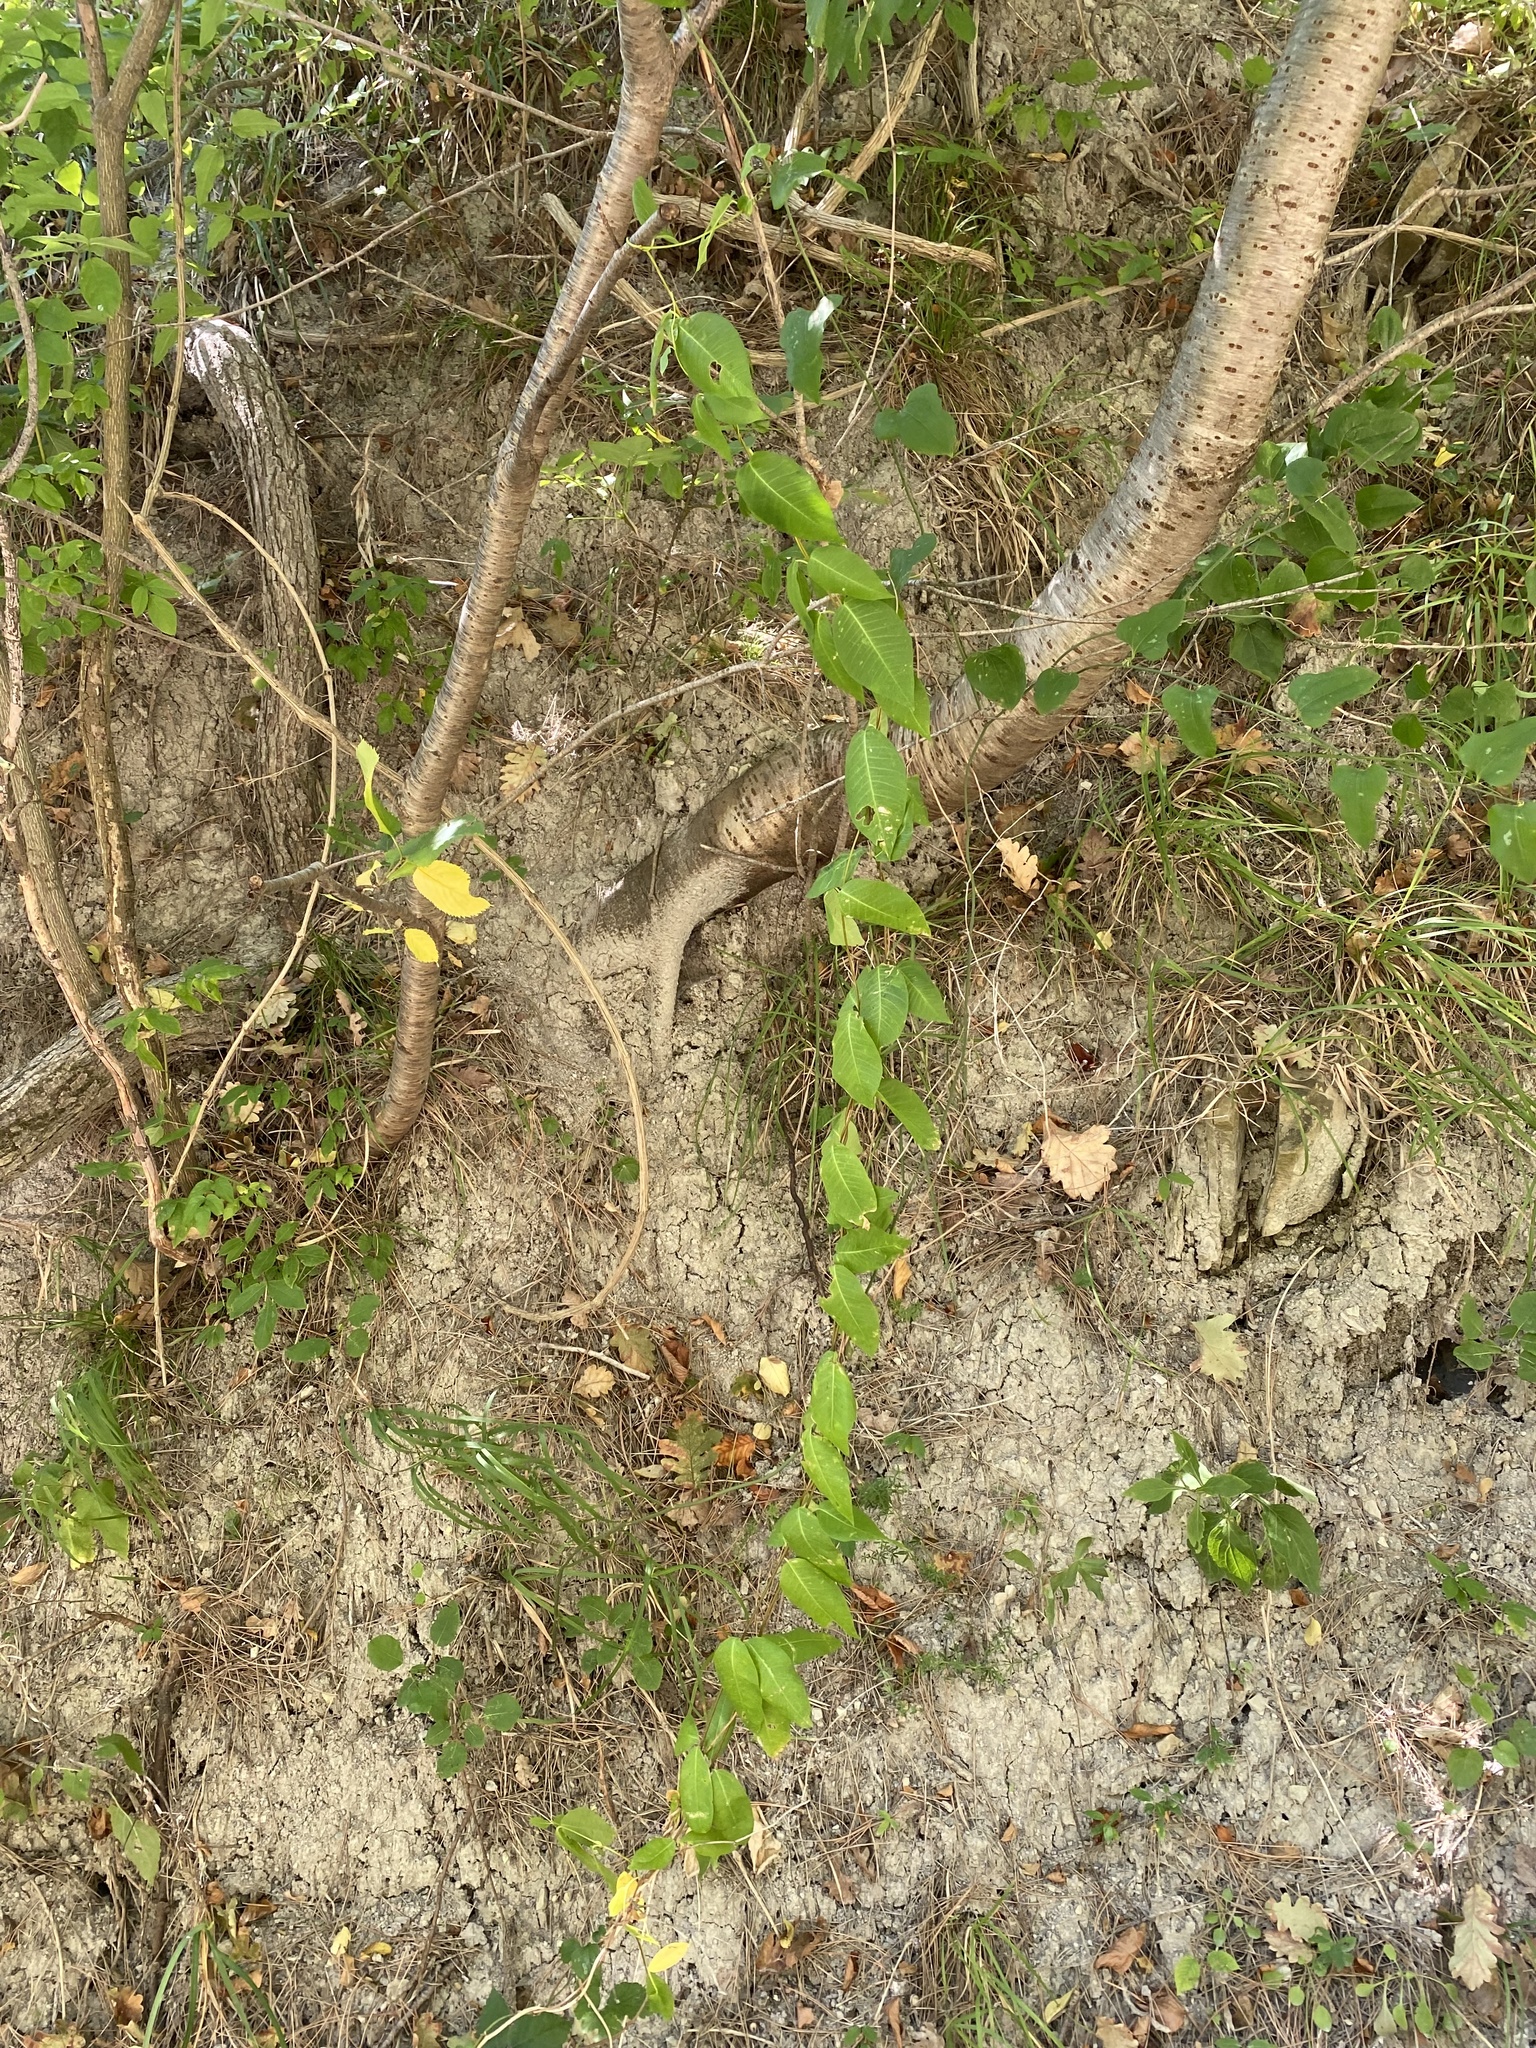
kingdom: Plantae
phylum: Tracheophyta
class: Magnoliopsida
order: Gentianales
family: Apocynaceae
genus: Periploca
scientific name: Periploca graeca
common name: Silkvine
